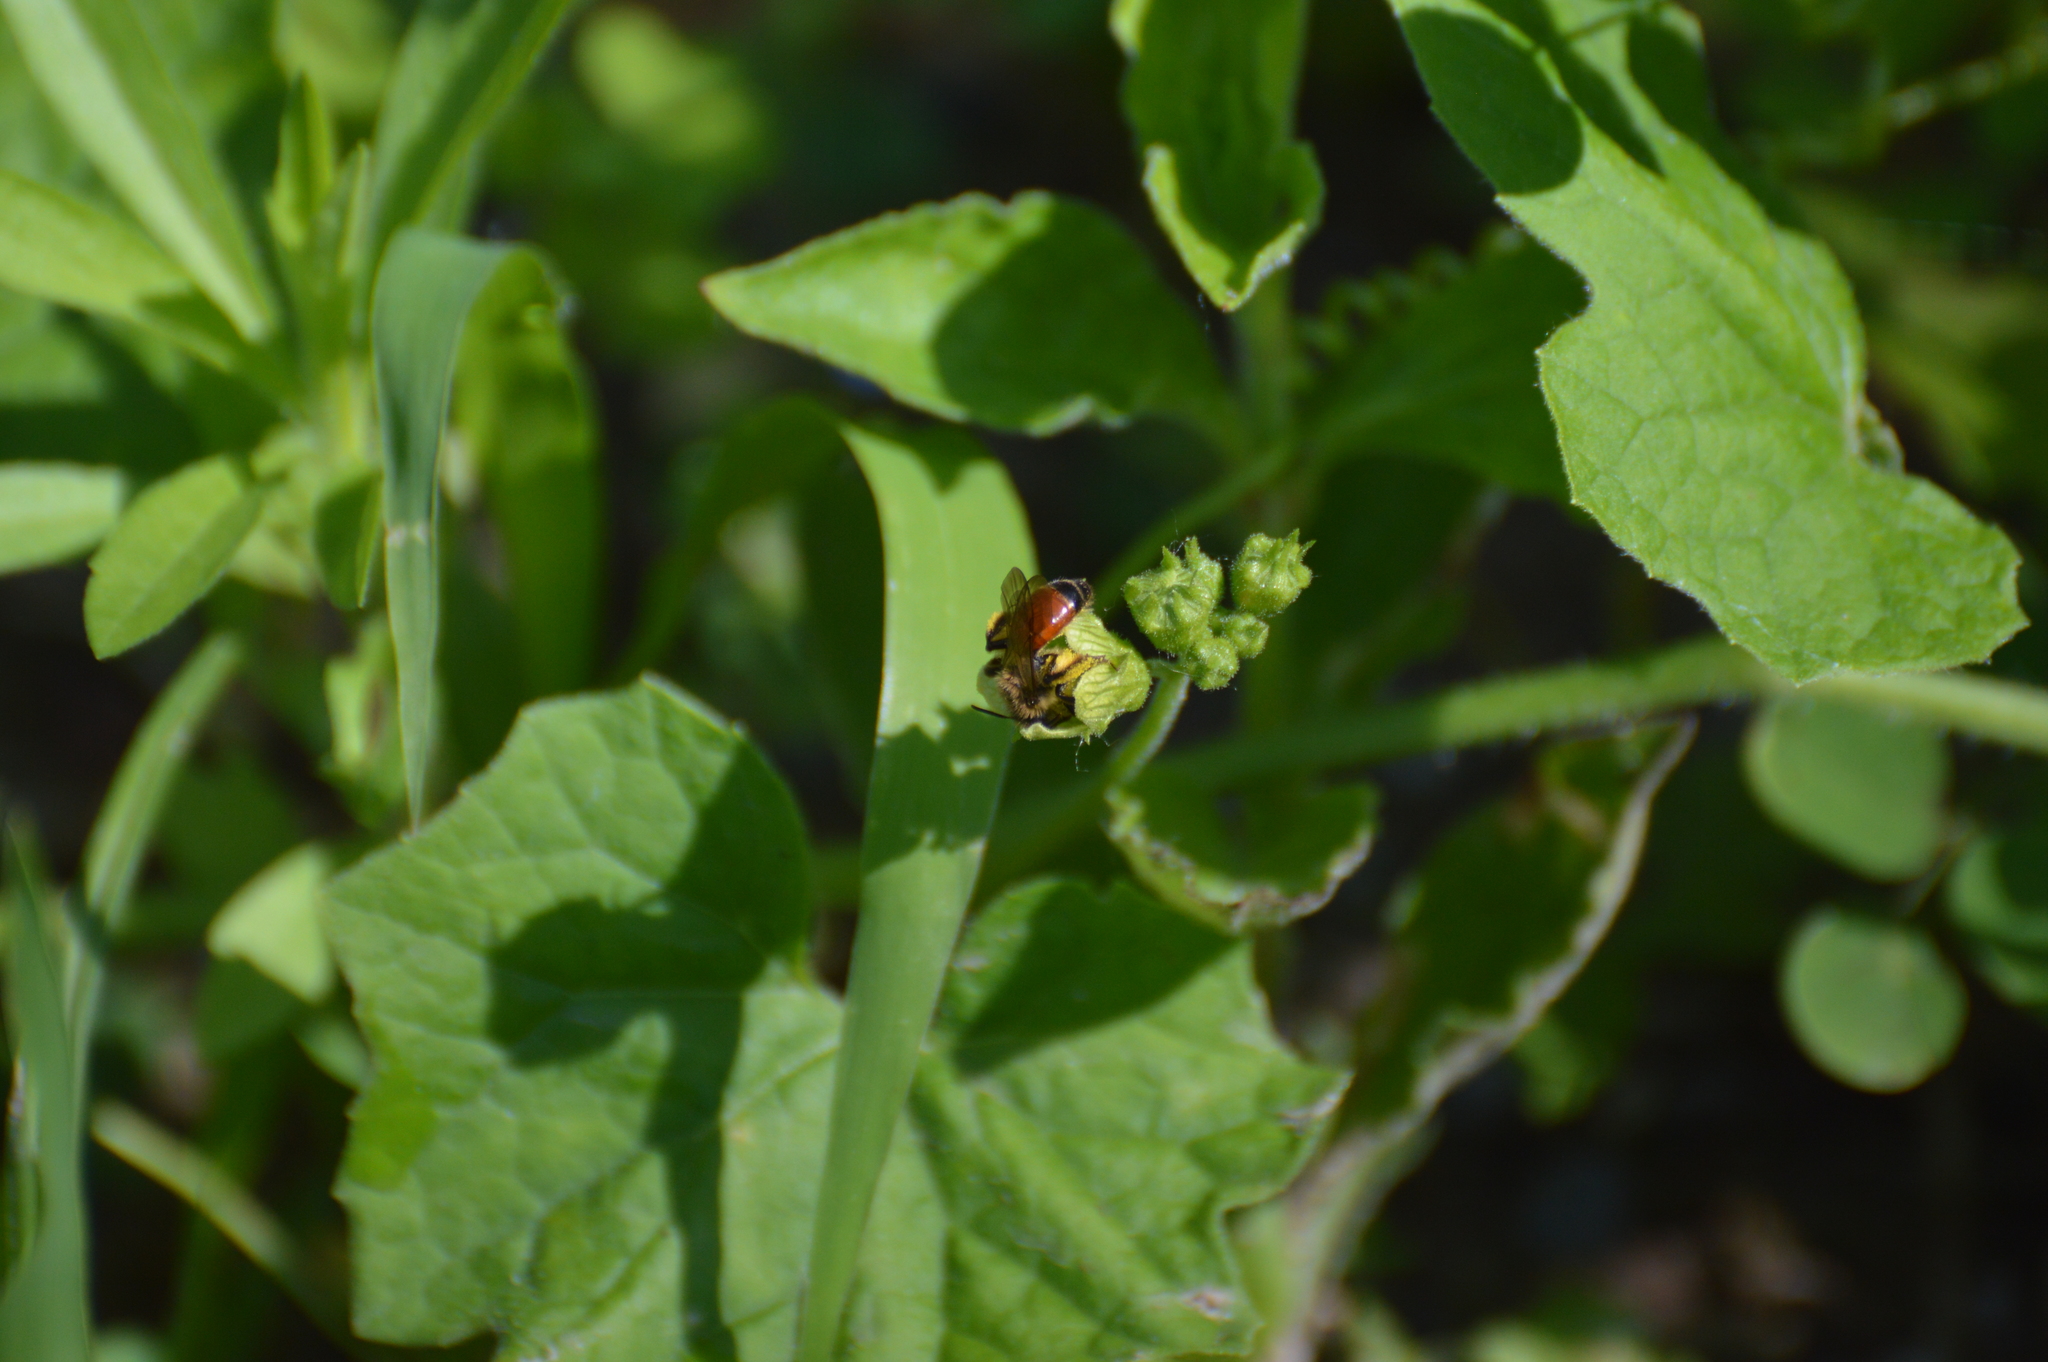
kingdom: Animalia
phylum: Arthropoda
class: Insecta
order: Hymenoptera
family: Andrenidae
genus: Andrena
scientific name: Andrena florea
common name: Bryony mining bee
